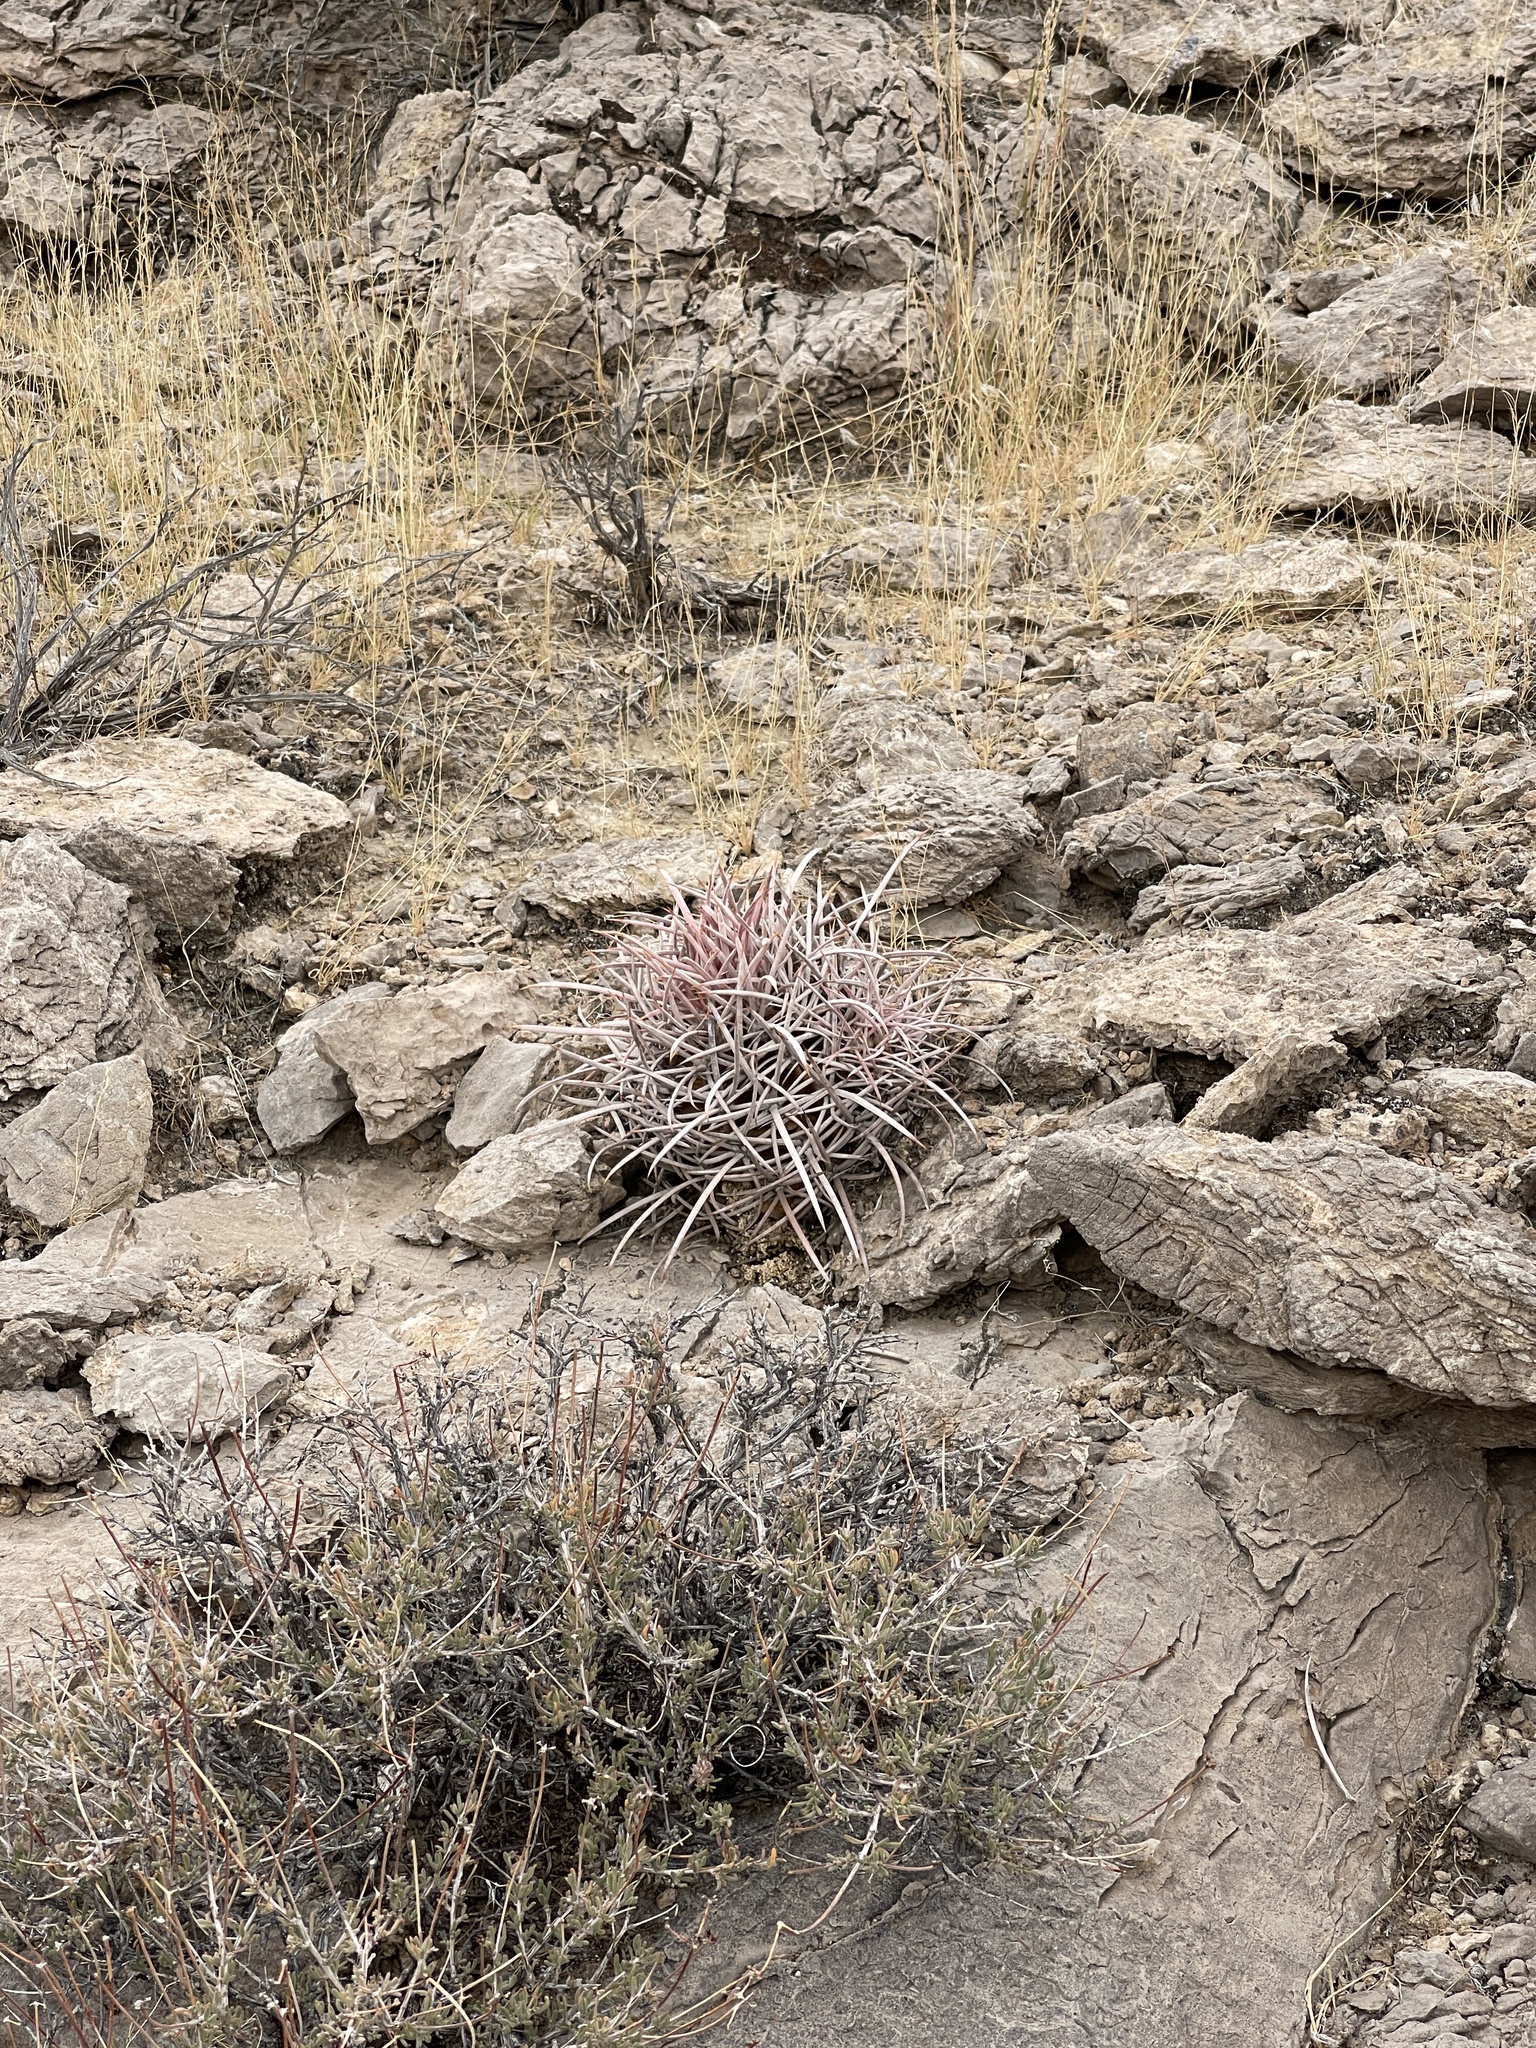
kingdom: Plantae
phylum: Tracheophyta
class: Magnoliopsida
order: Caryophyllales
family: Cactaceae
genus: Echinocactus
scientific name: Echinocactus polycephalus
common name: Cottontop cactus
